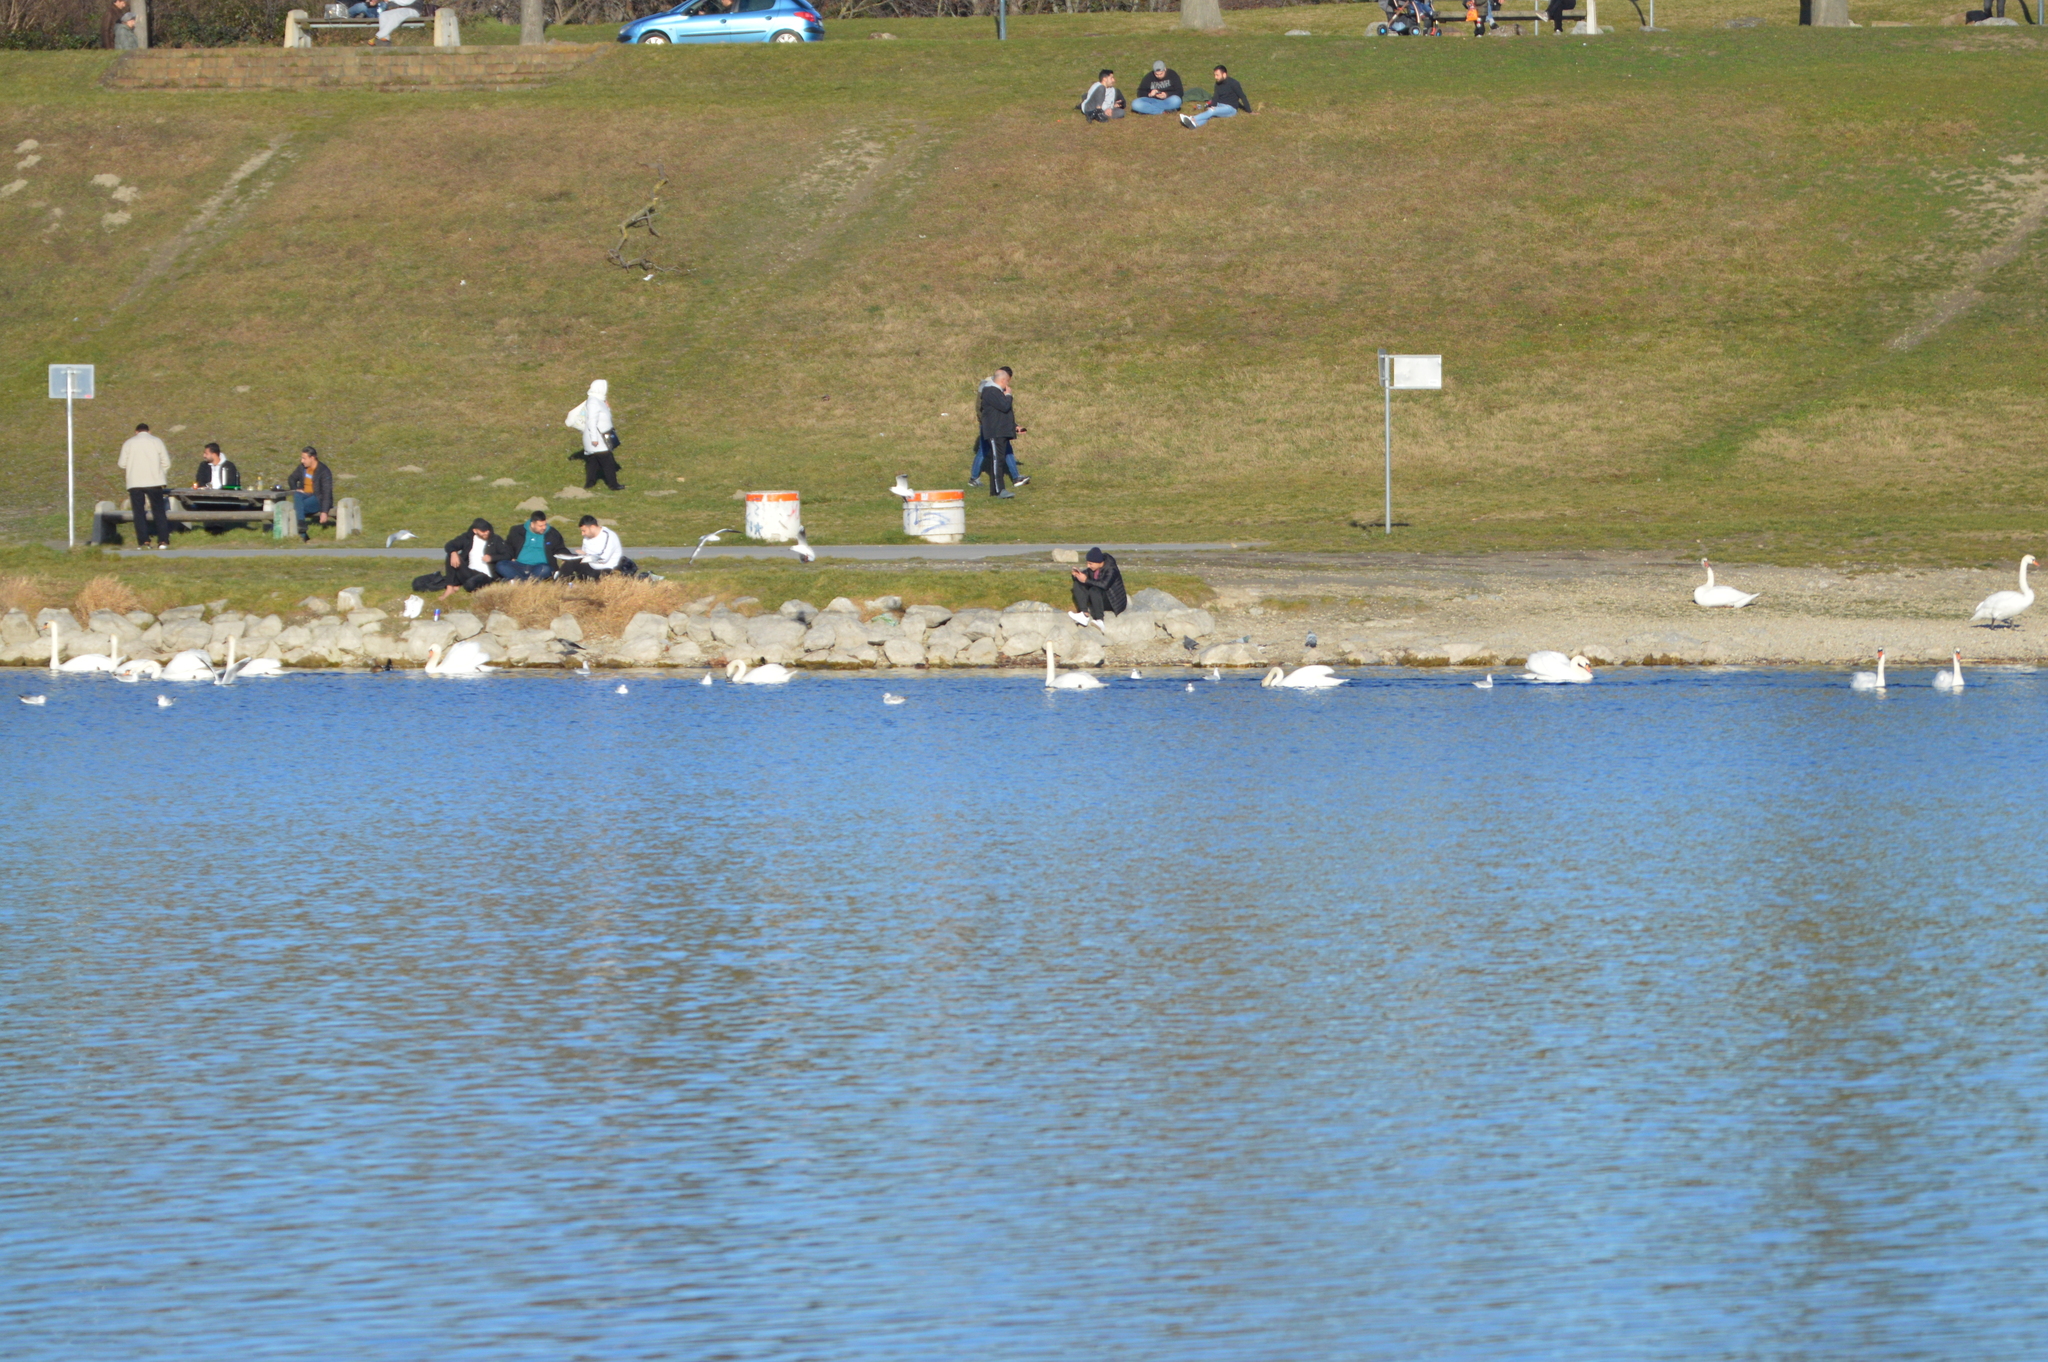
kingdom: Animalia
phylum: Chordata
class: Aves
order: Anseriformes
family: Anatidae
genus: Cygnus
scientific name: Cygnus olor
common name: Mute swan
